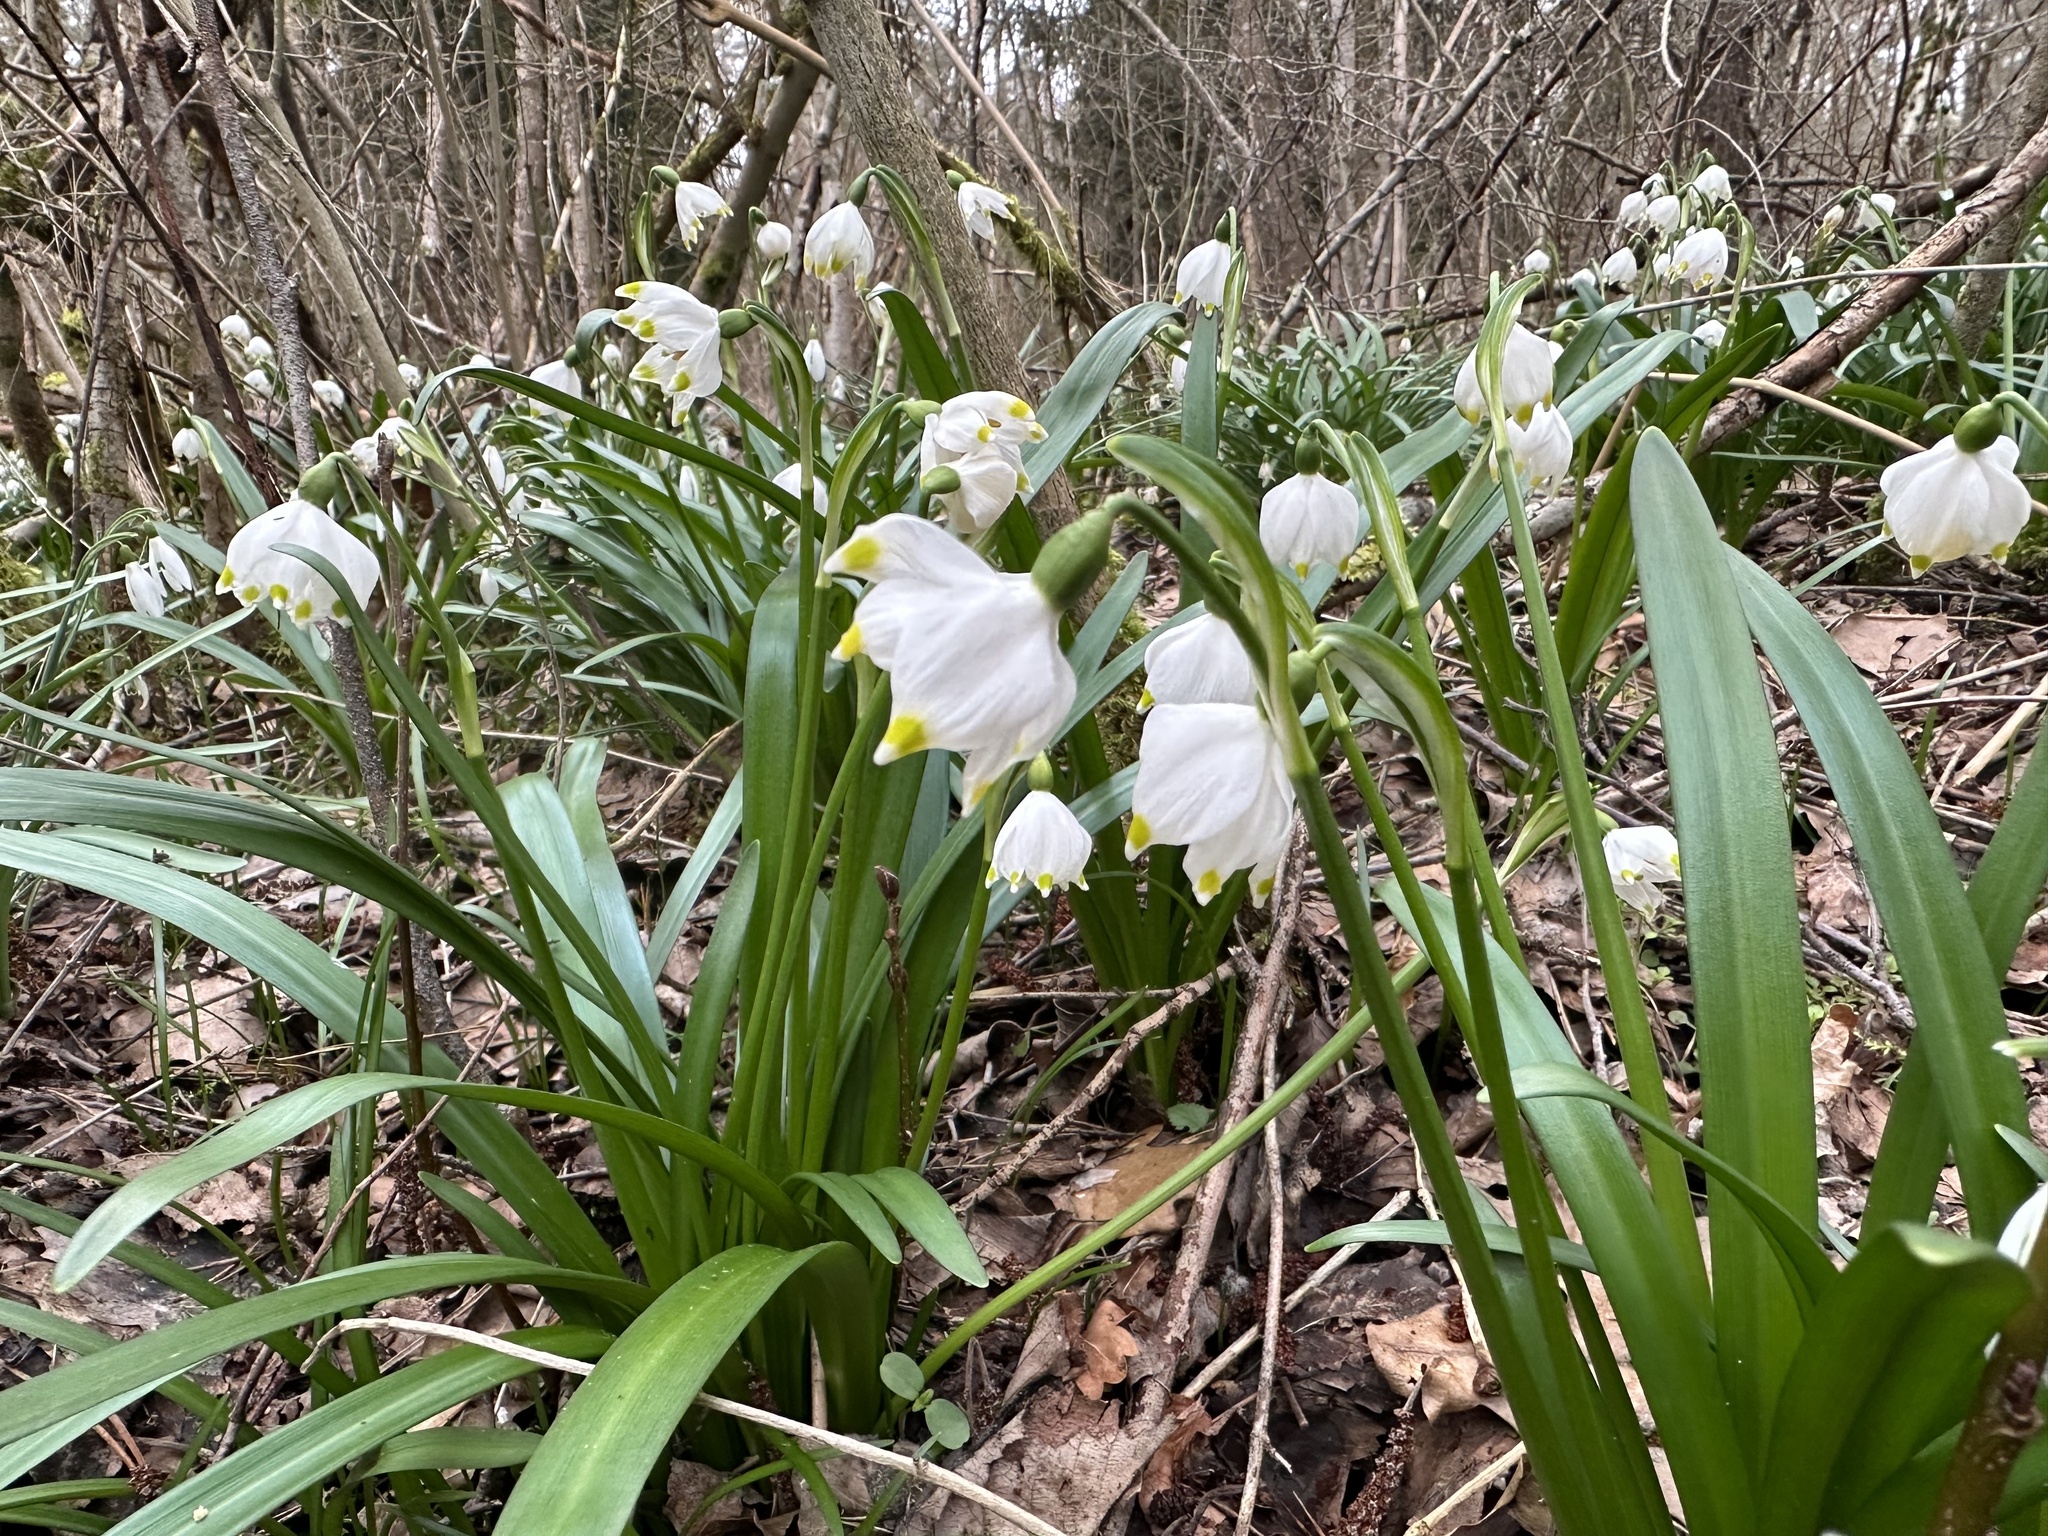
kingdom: Plantae
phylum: Tracheophyta
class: Liliopsida
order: Asparagales
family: Amaryllidaceae
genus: Leucojum
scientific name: Leucojum vernum
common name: Spring snowflake
